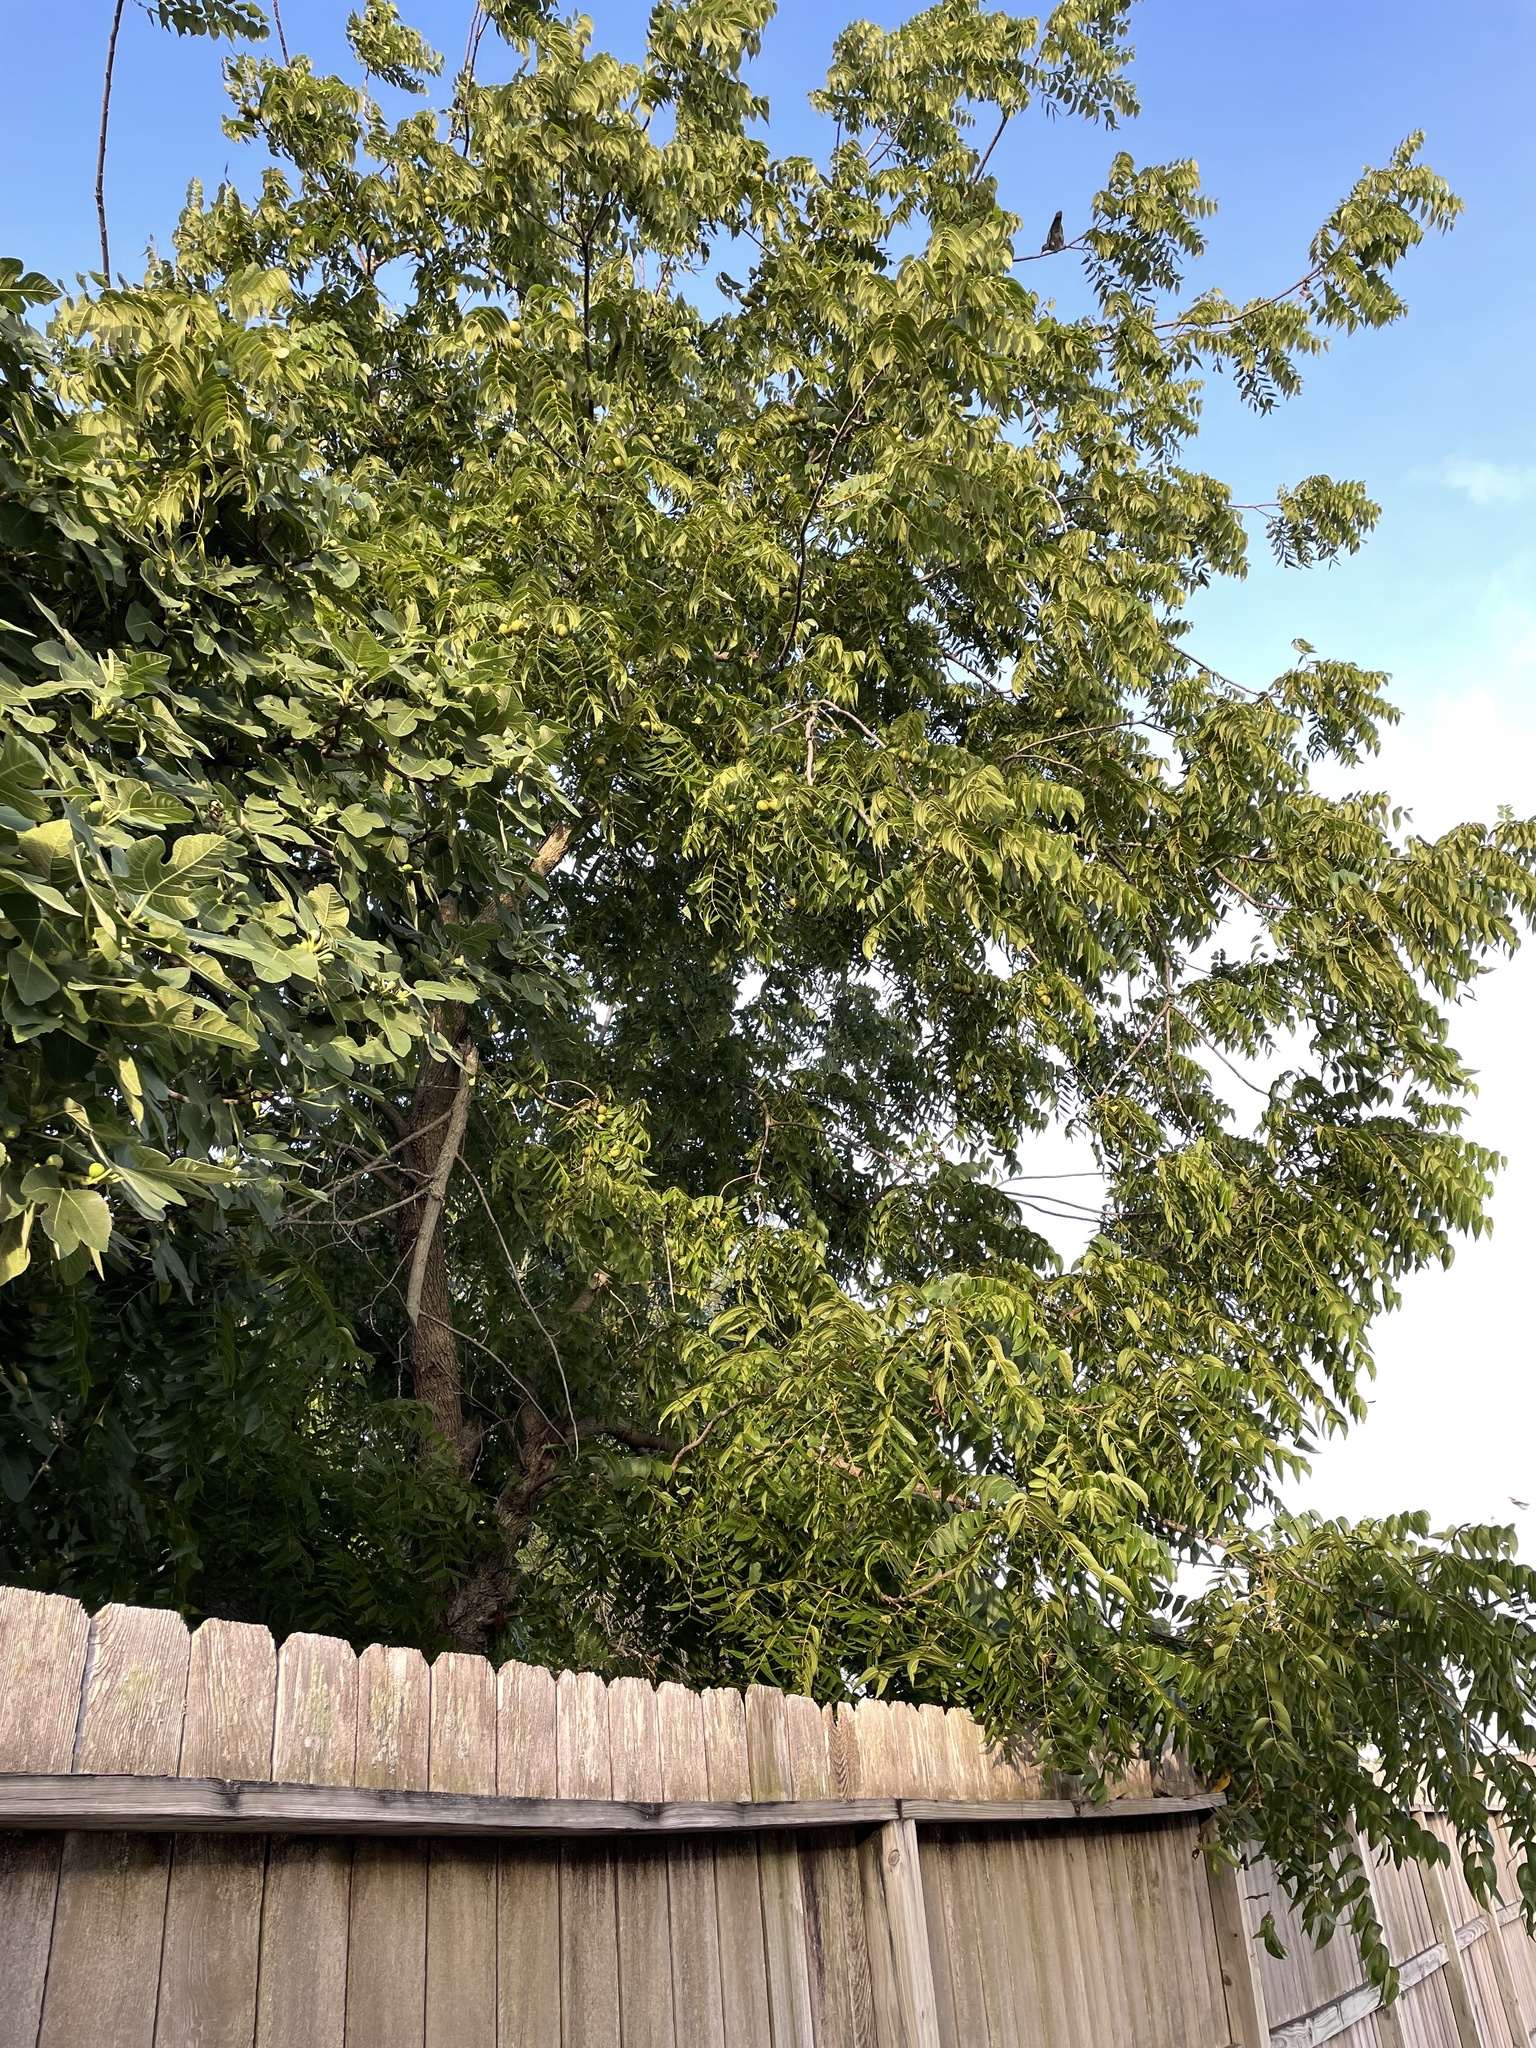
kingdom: Plantae
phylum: Tracheophyta
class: Magnoliopsida
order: Fagales
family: Juglandaceae
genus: Juglans
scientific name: Juglans nigra
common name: Black walnut
